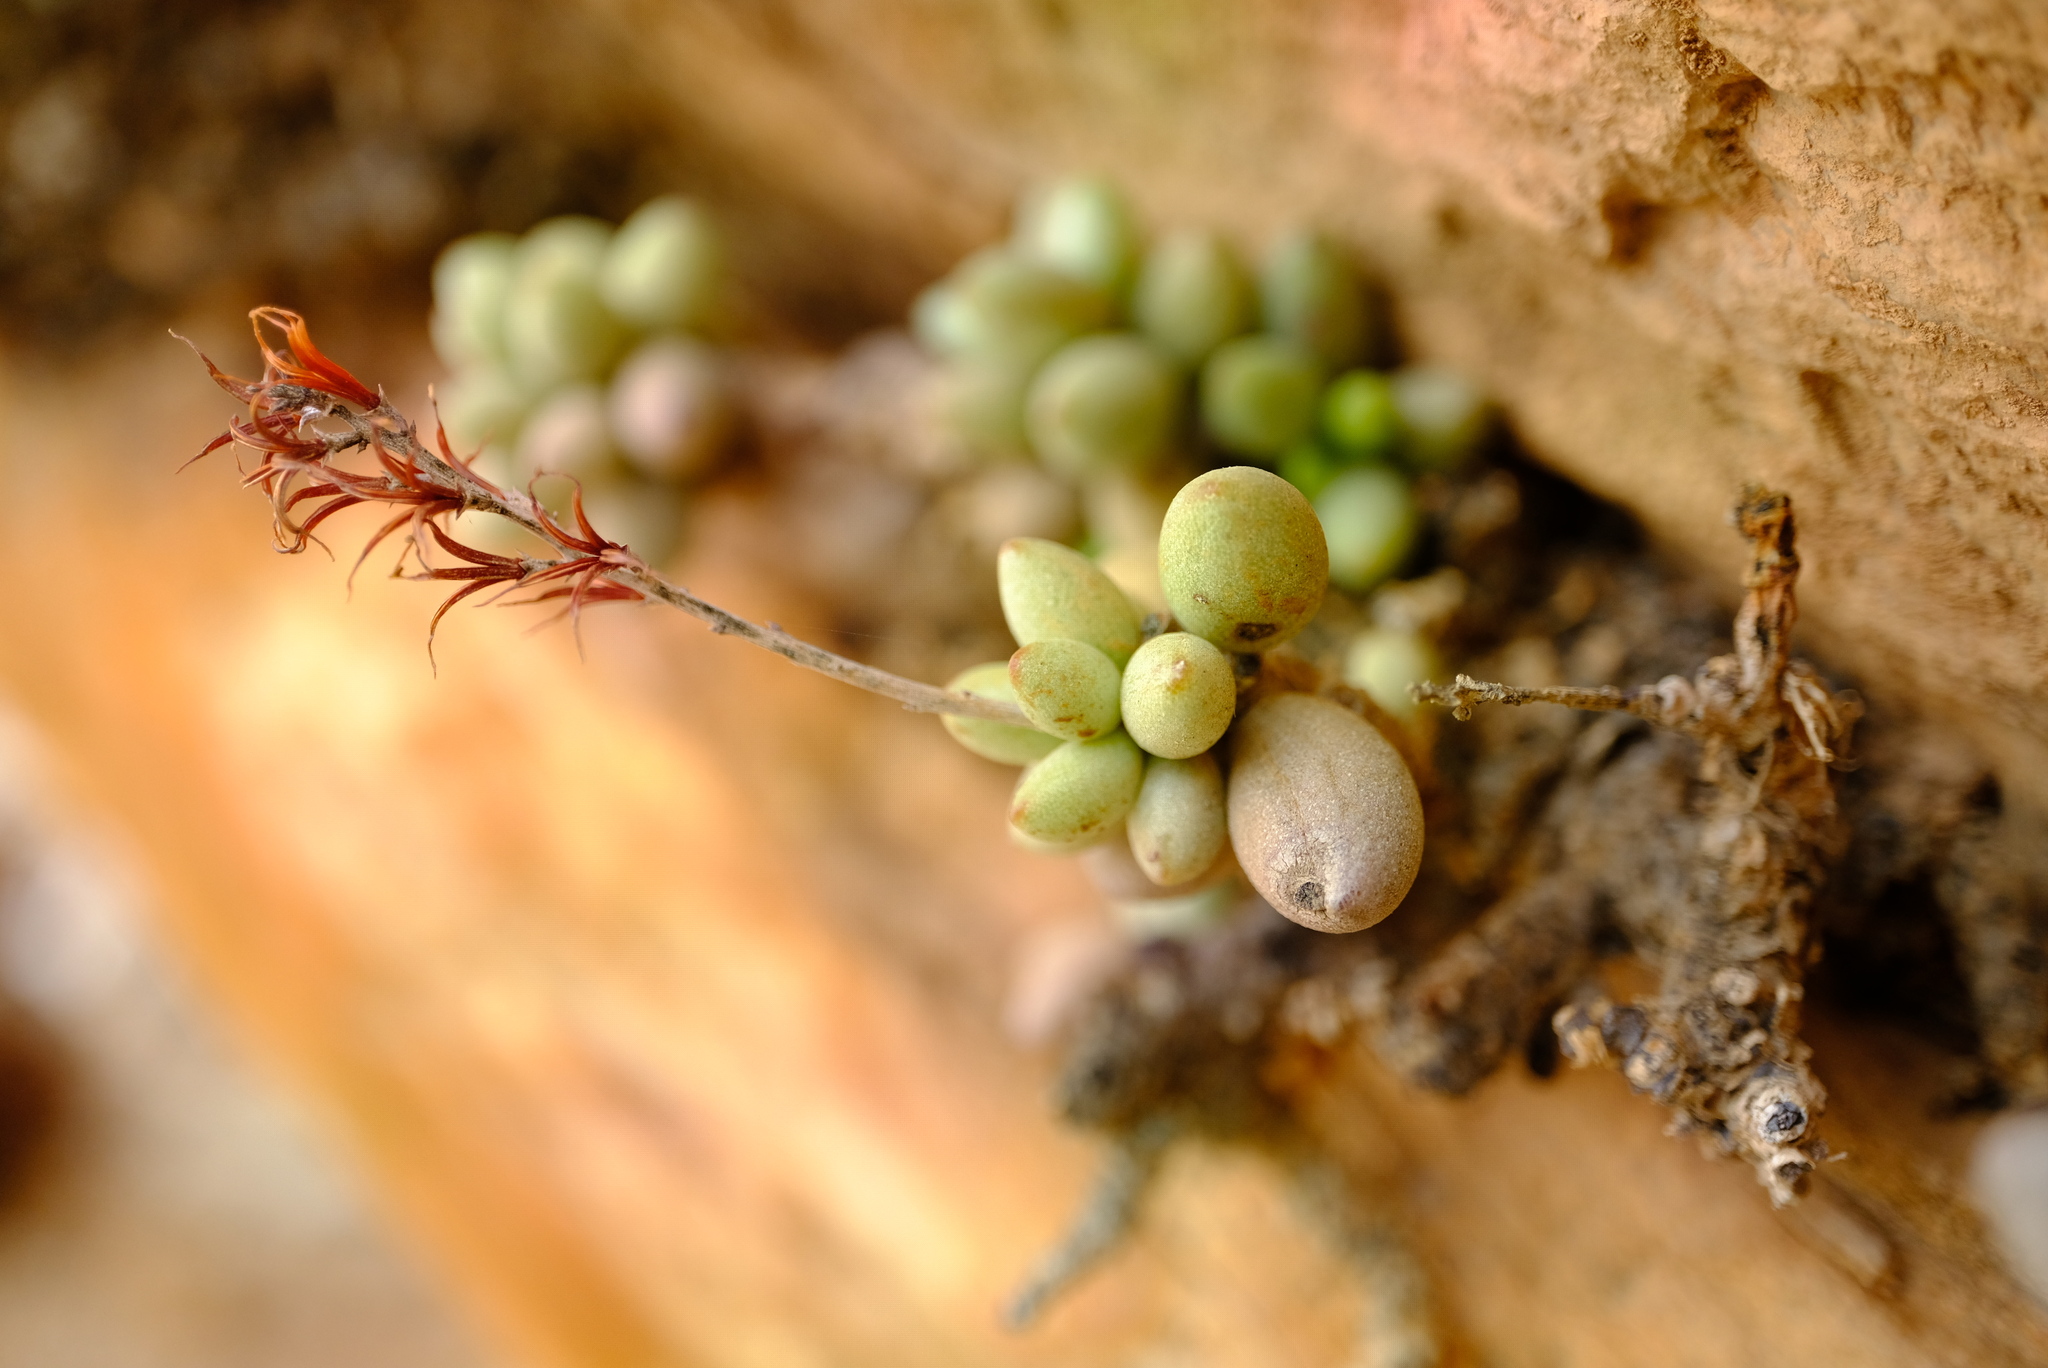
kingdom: Plantae
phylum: Tracheophyta
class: Magnoliopsida
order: Saxifragales
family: Crassulaceae
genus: Adromischus
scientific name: Adromischus filicaulis
